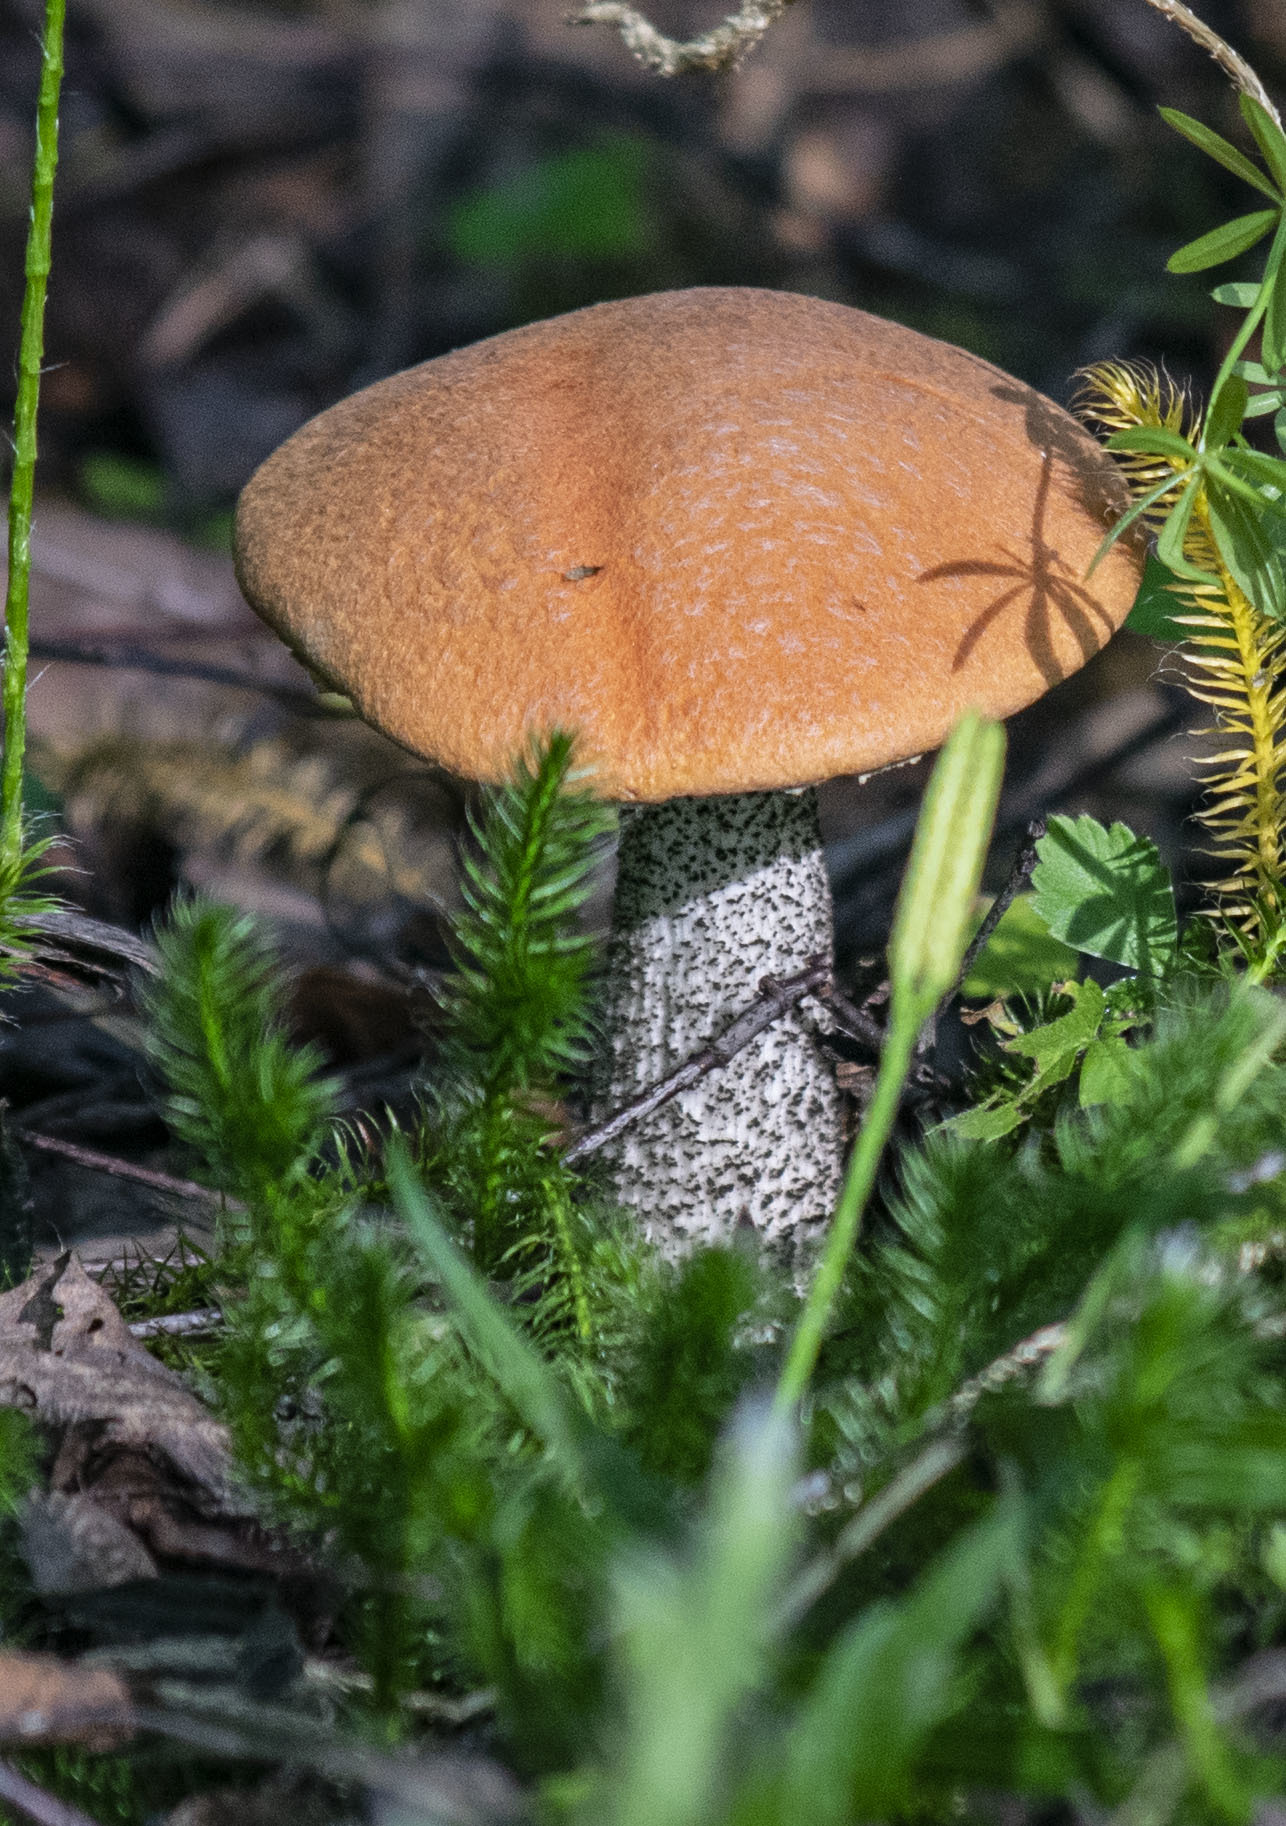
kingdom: Fungi
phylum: Basidiomycota
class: Agaricomycetes
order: Boletales
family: Boletaceae
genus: Leccinum
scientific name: Leccinum versipelle
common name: Orange birch bolete
